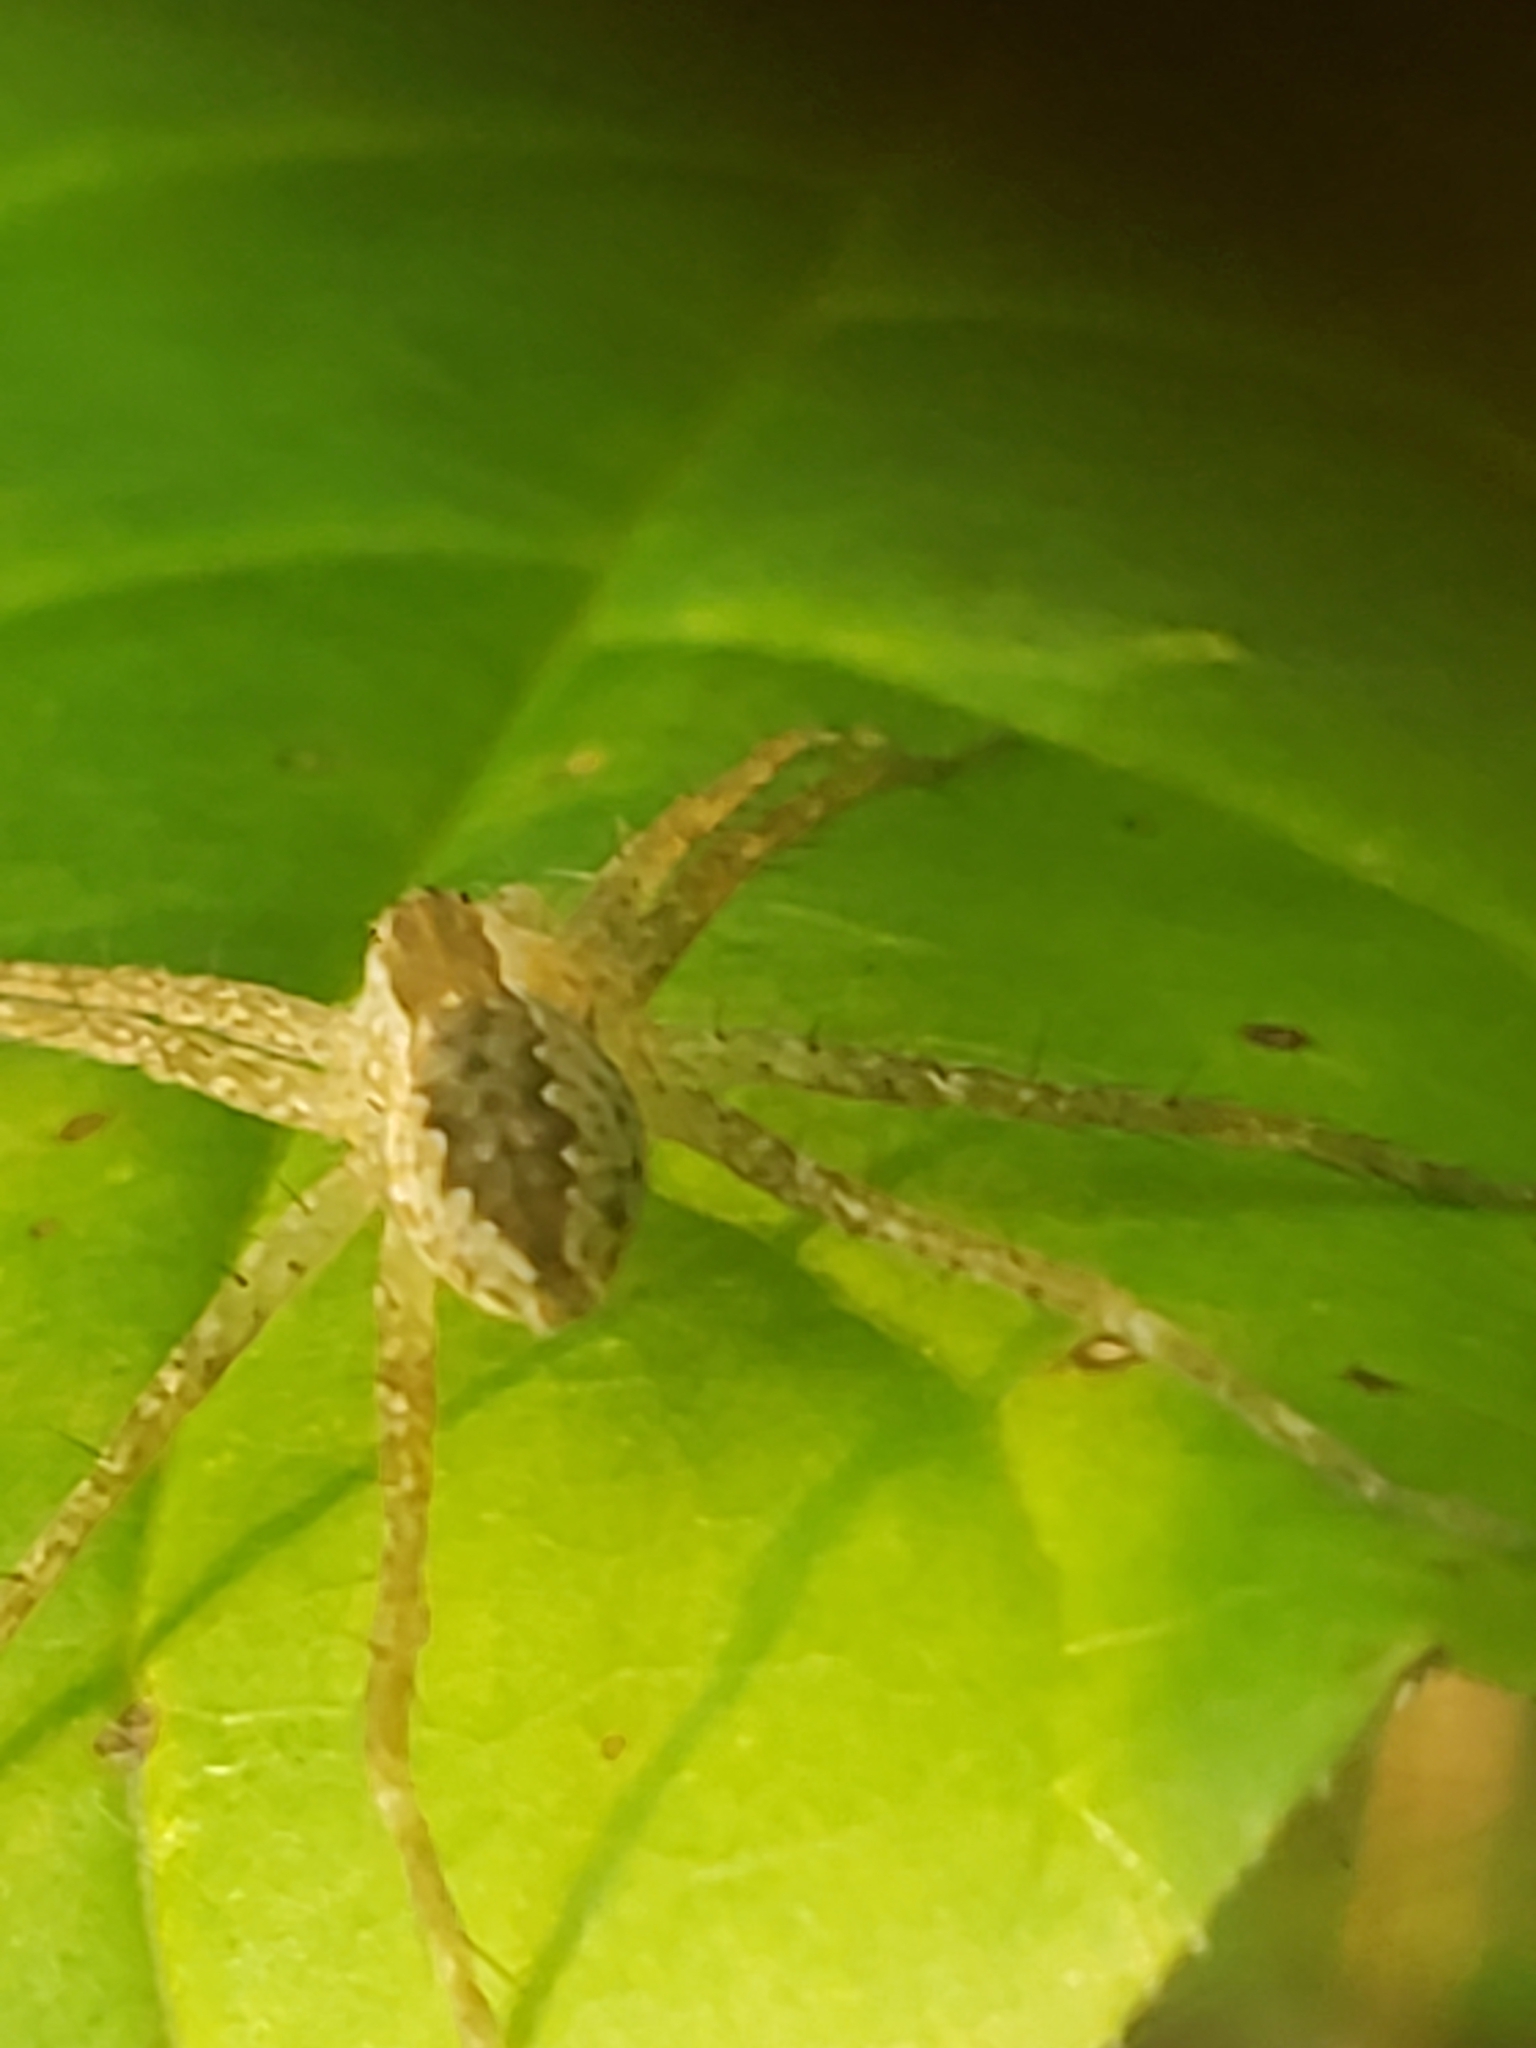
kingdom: Animalia
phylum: Arthropoda
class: Arachnida
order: Araneae
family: Pisauridae
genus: Pisaurina
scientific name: Pisaurina mira
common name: American nursery web spider
